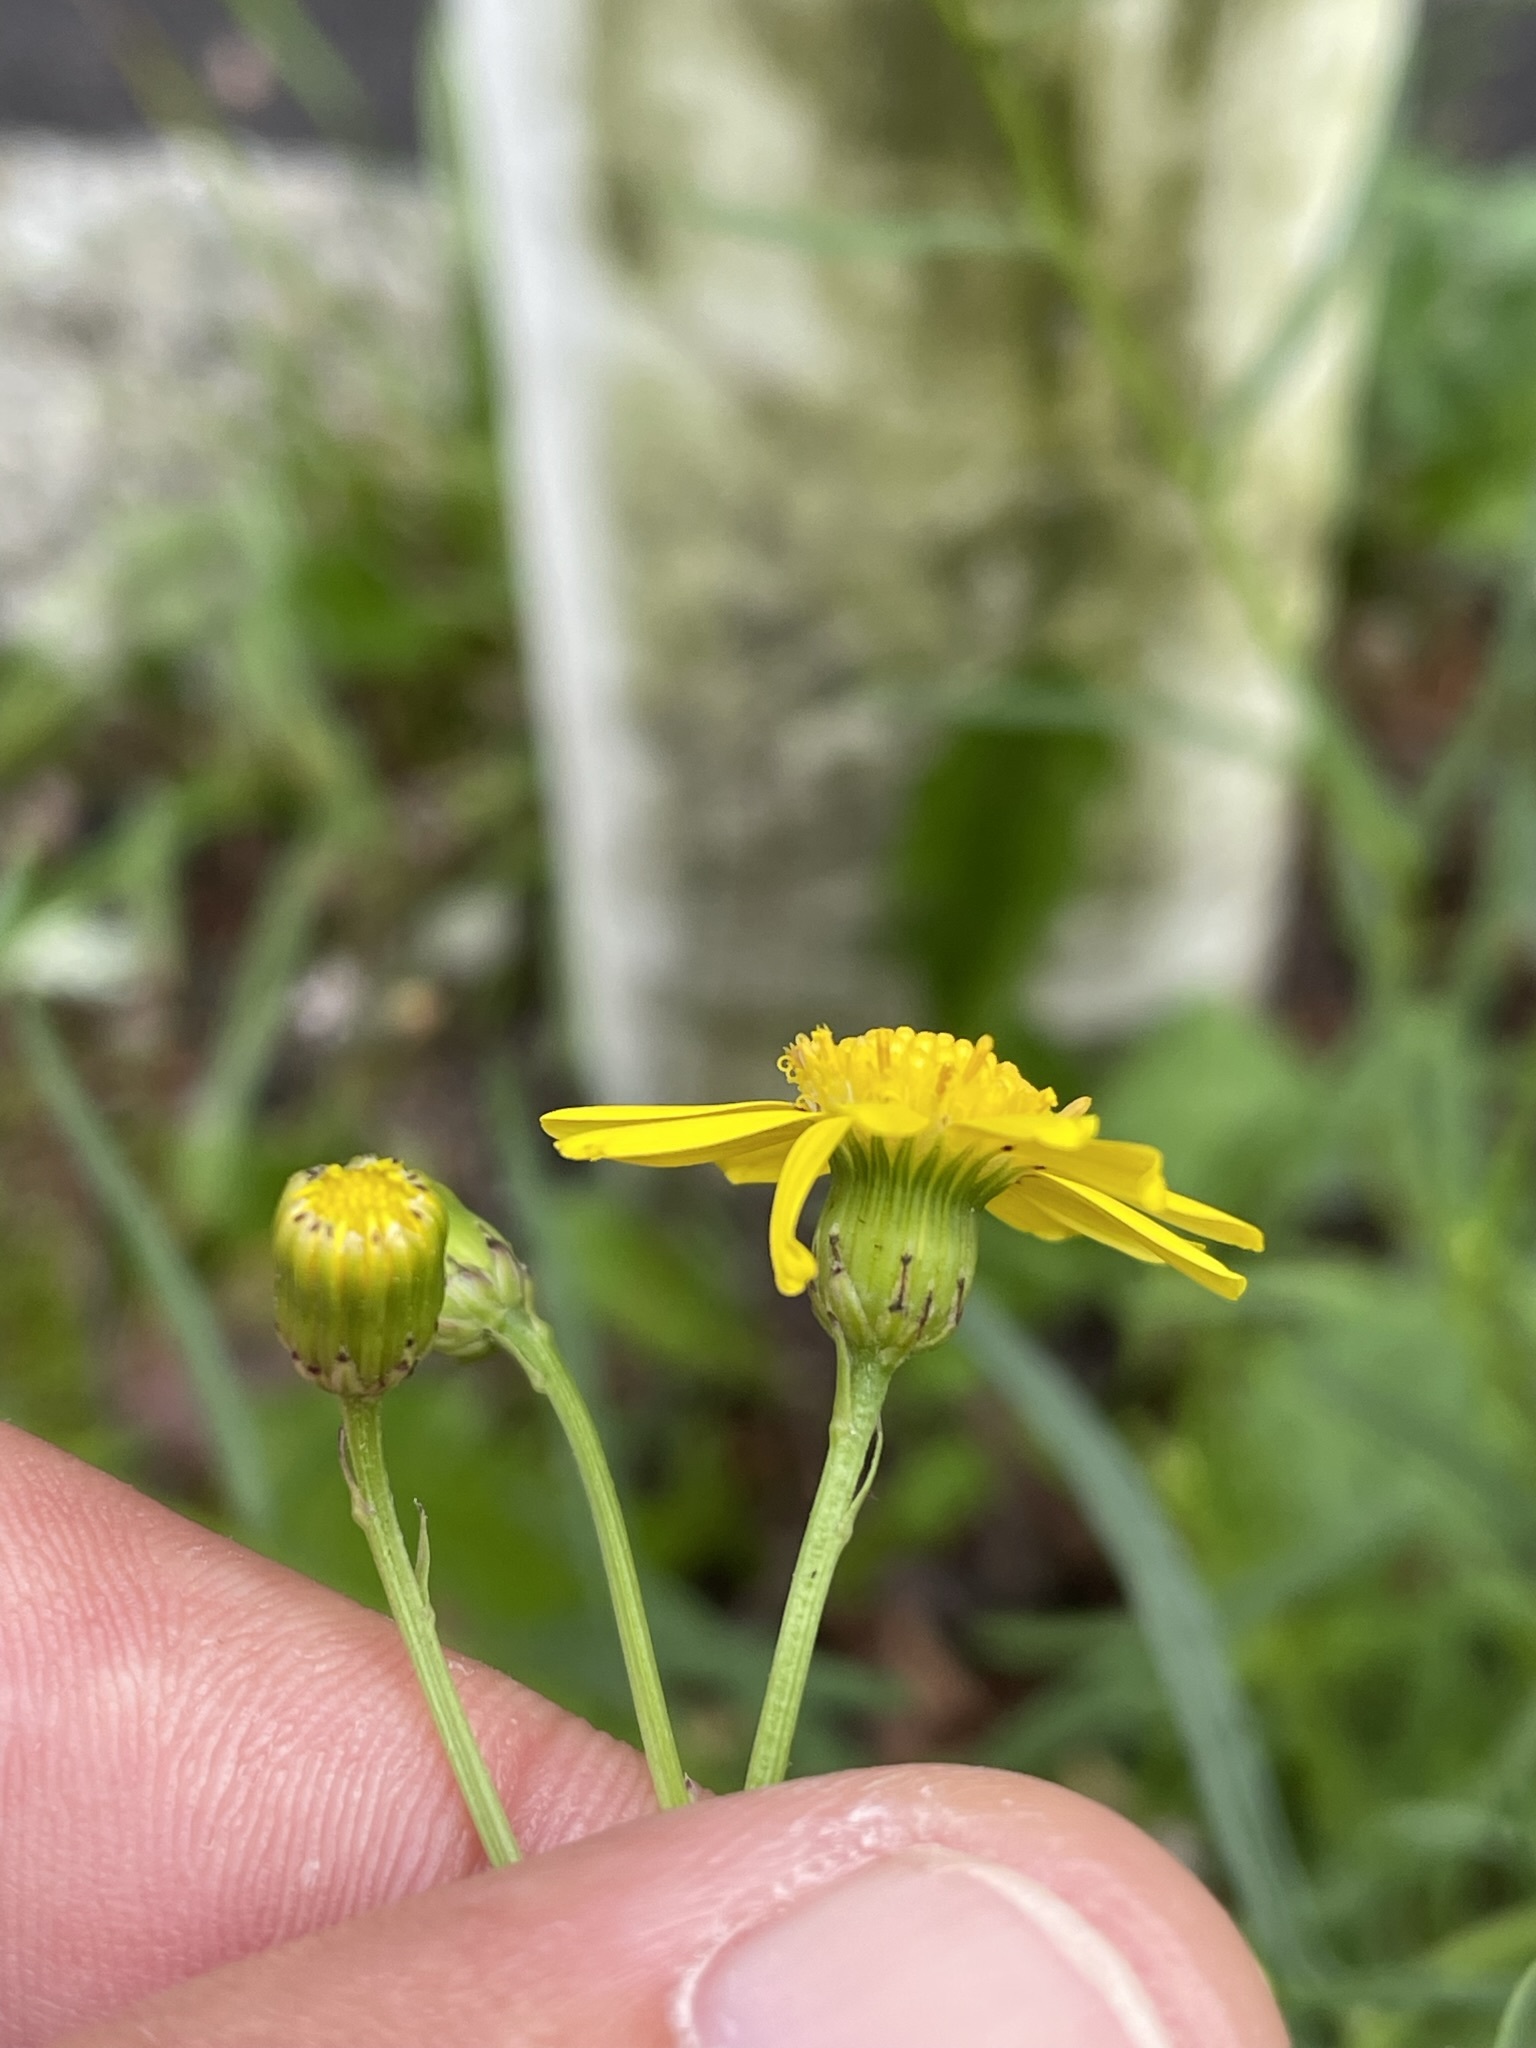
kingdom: Plantae
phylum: Tracheophyta
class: Magnoliopsida
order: Asterales
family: Asteraceae
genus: Senecio
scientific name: Senecio inaequidens
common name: Narrow-leaved ragwort
